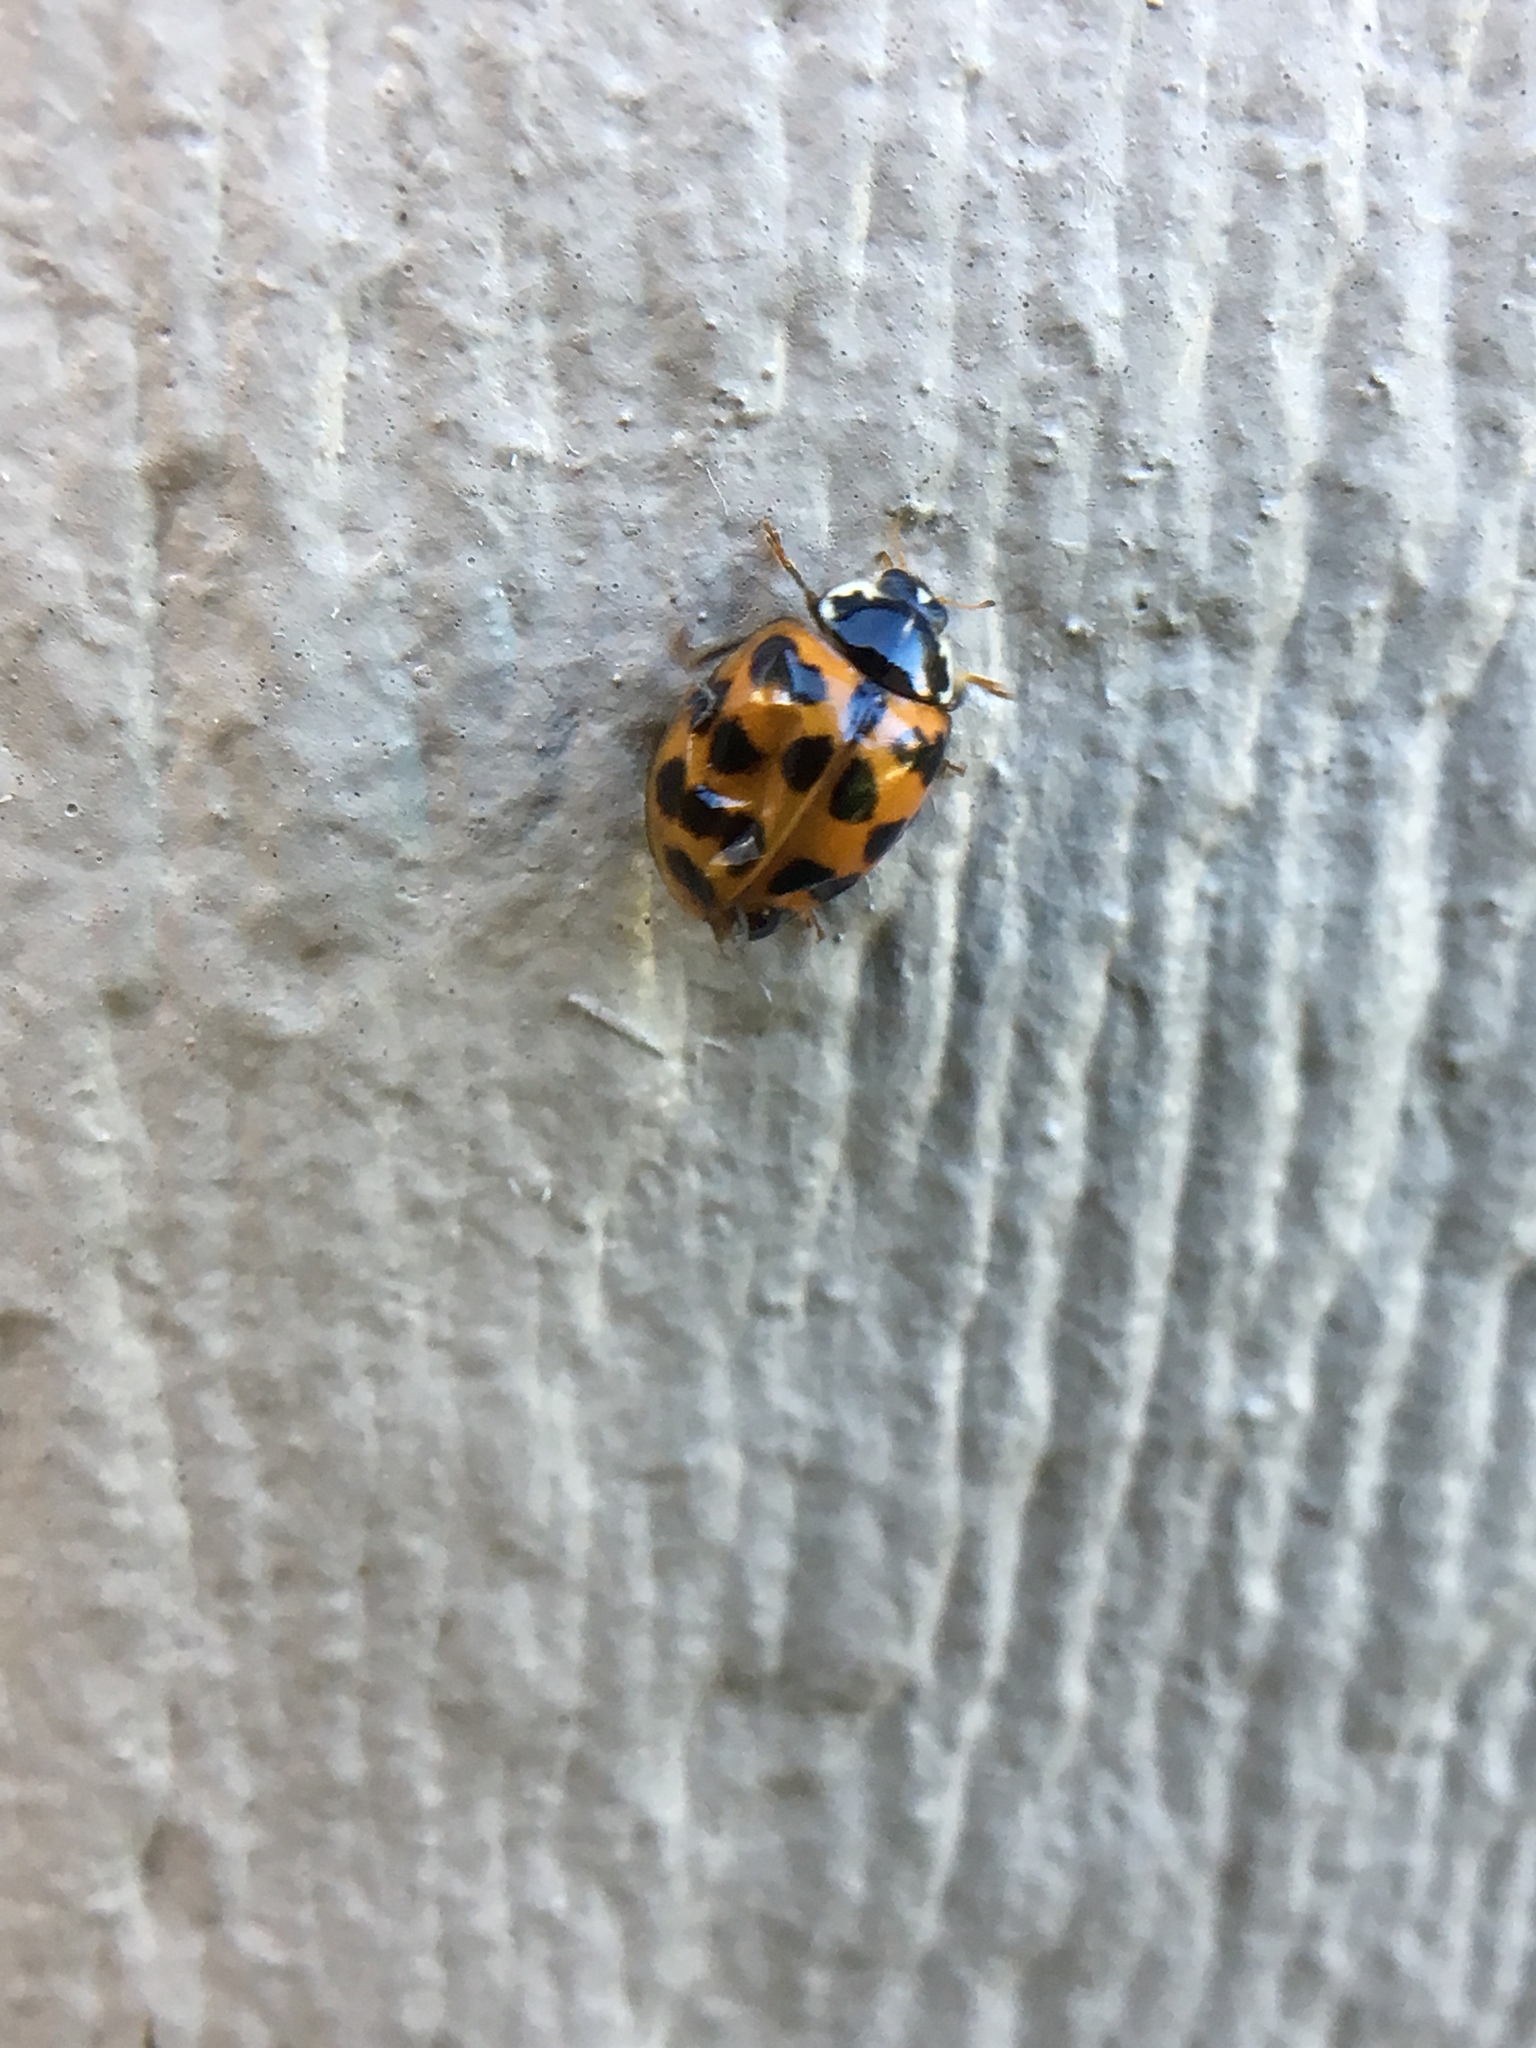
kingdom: Animalia
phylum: Arthropoda
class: Insecta
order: Coleoptera
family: Coccinellidae
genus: Harmonia
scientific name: Harmonia axyridis
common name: Harlequin ladybird
